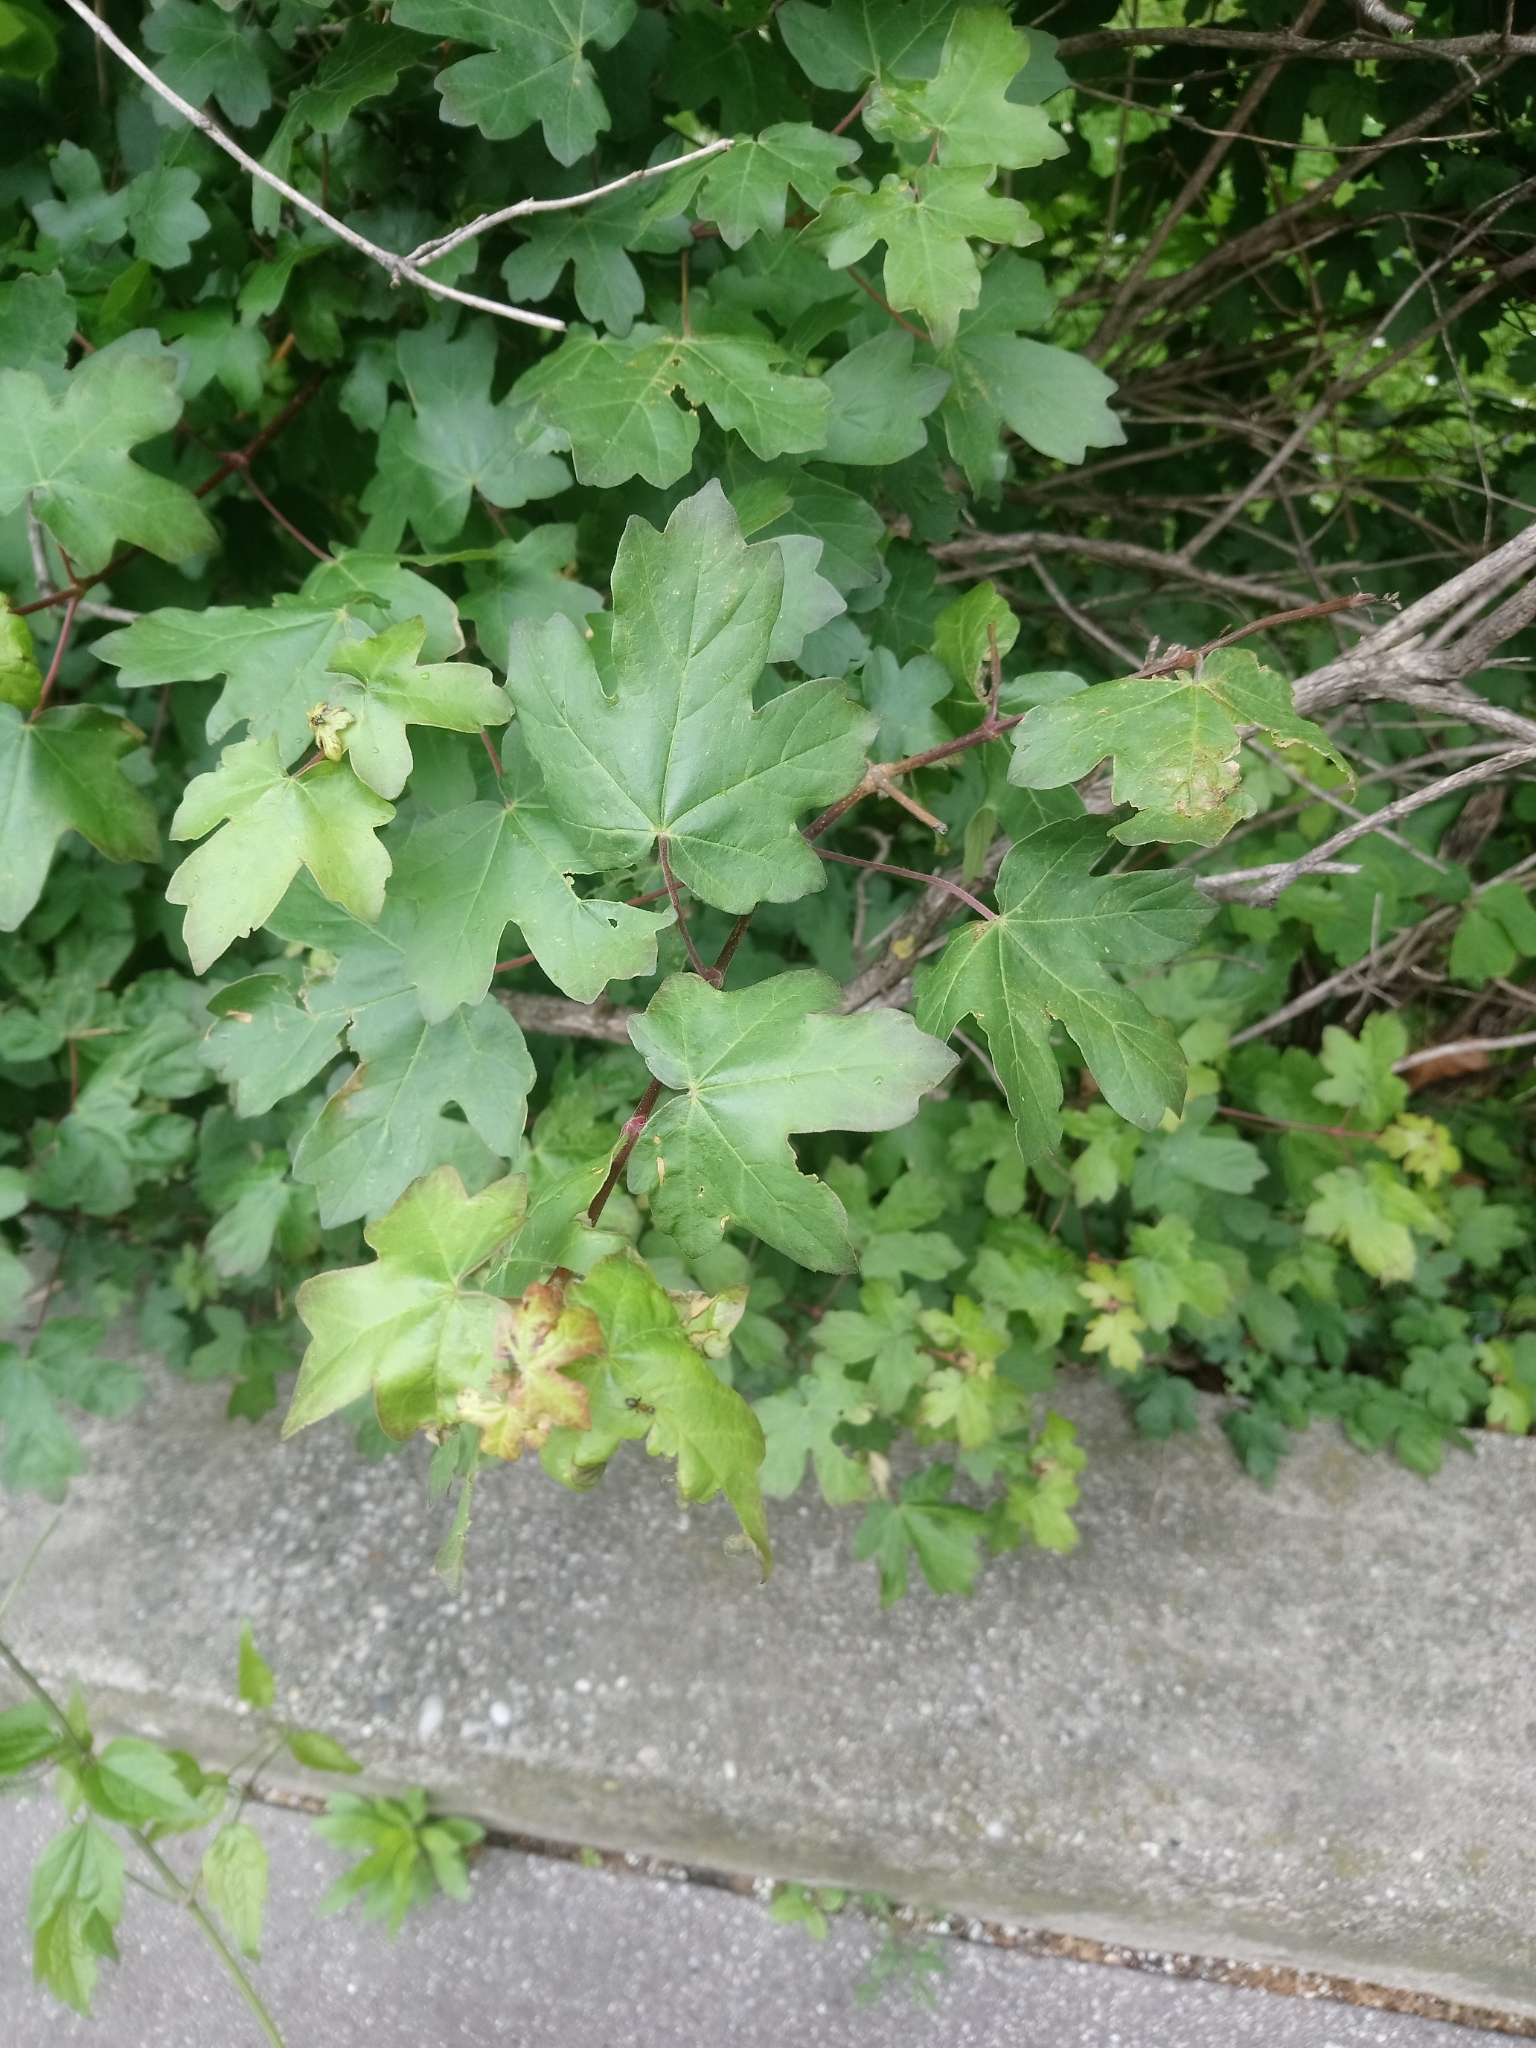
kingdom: Plantae
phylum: Tracheophyta
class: Magnoliopsida
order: Sapindales
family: Sapindaceae
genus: Acer
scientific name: Acer campestre
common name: Field maple
